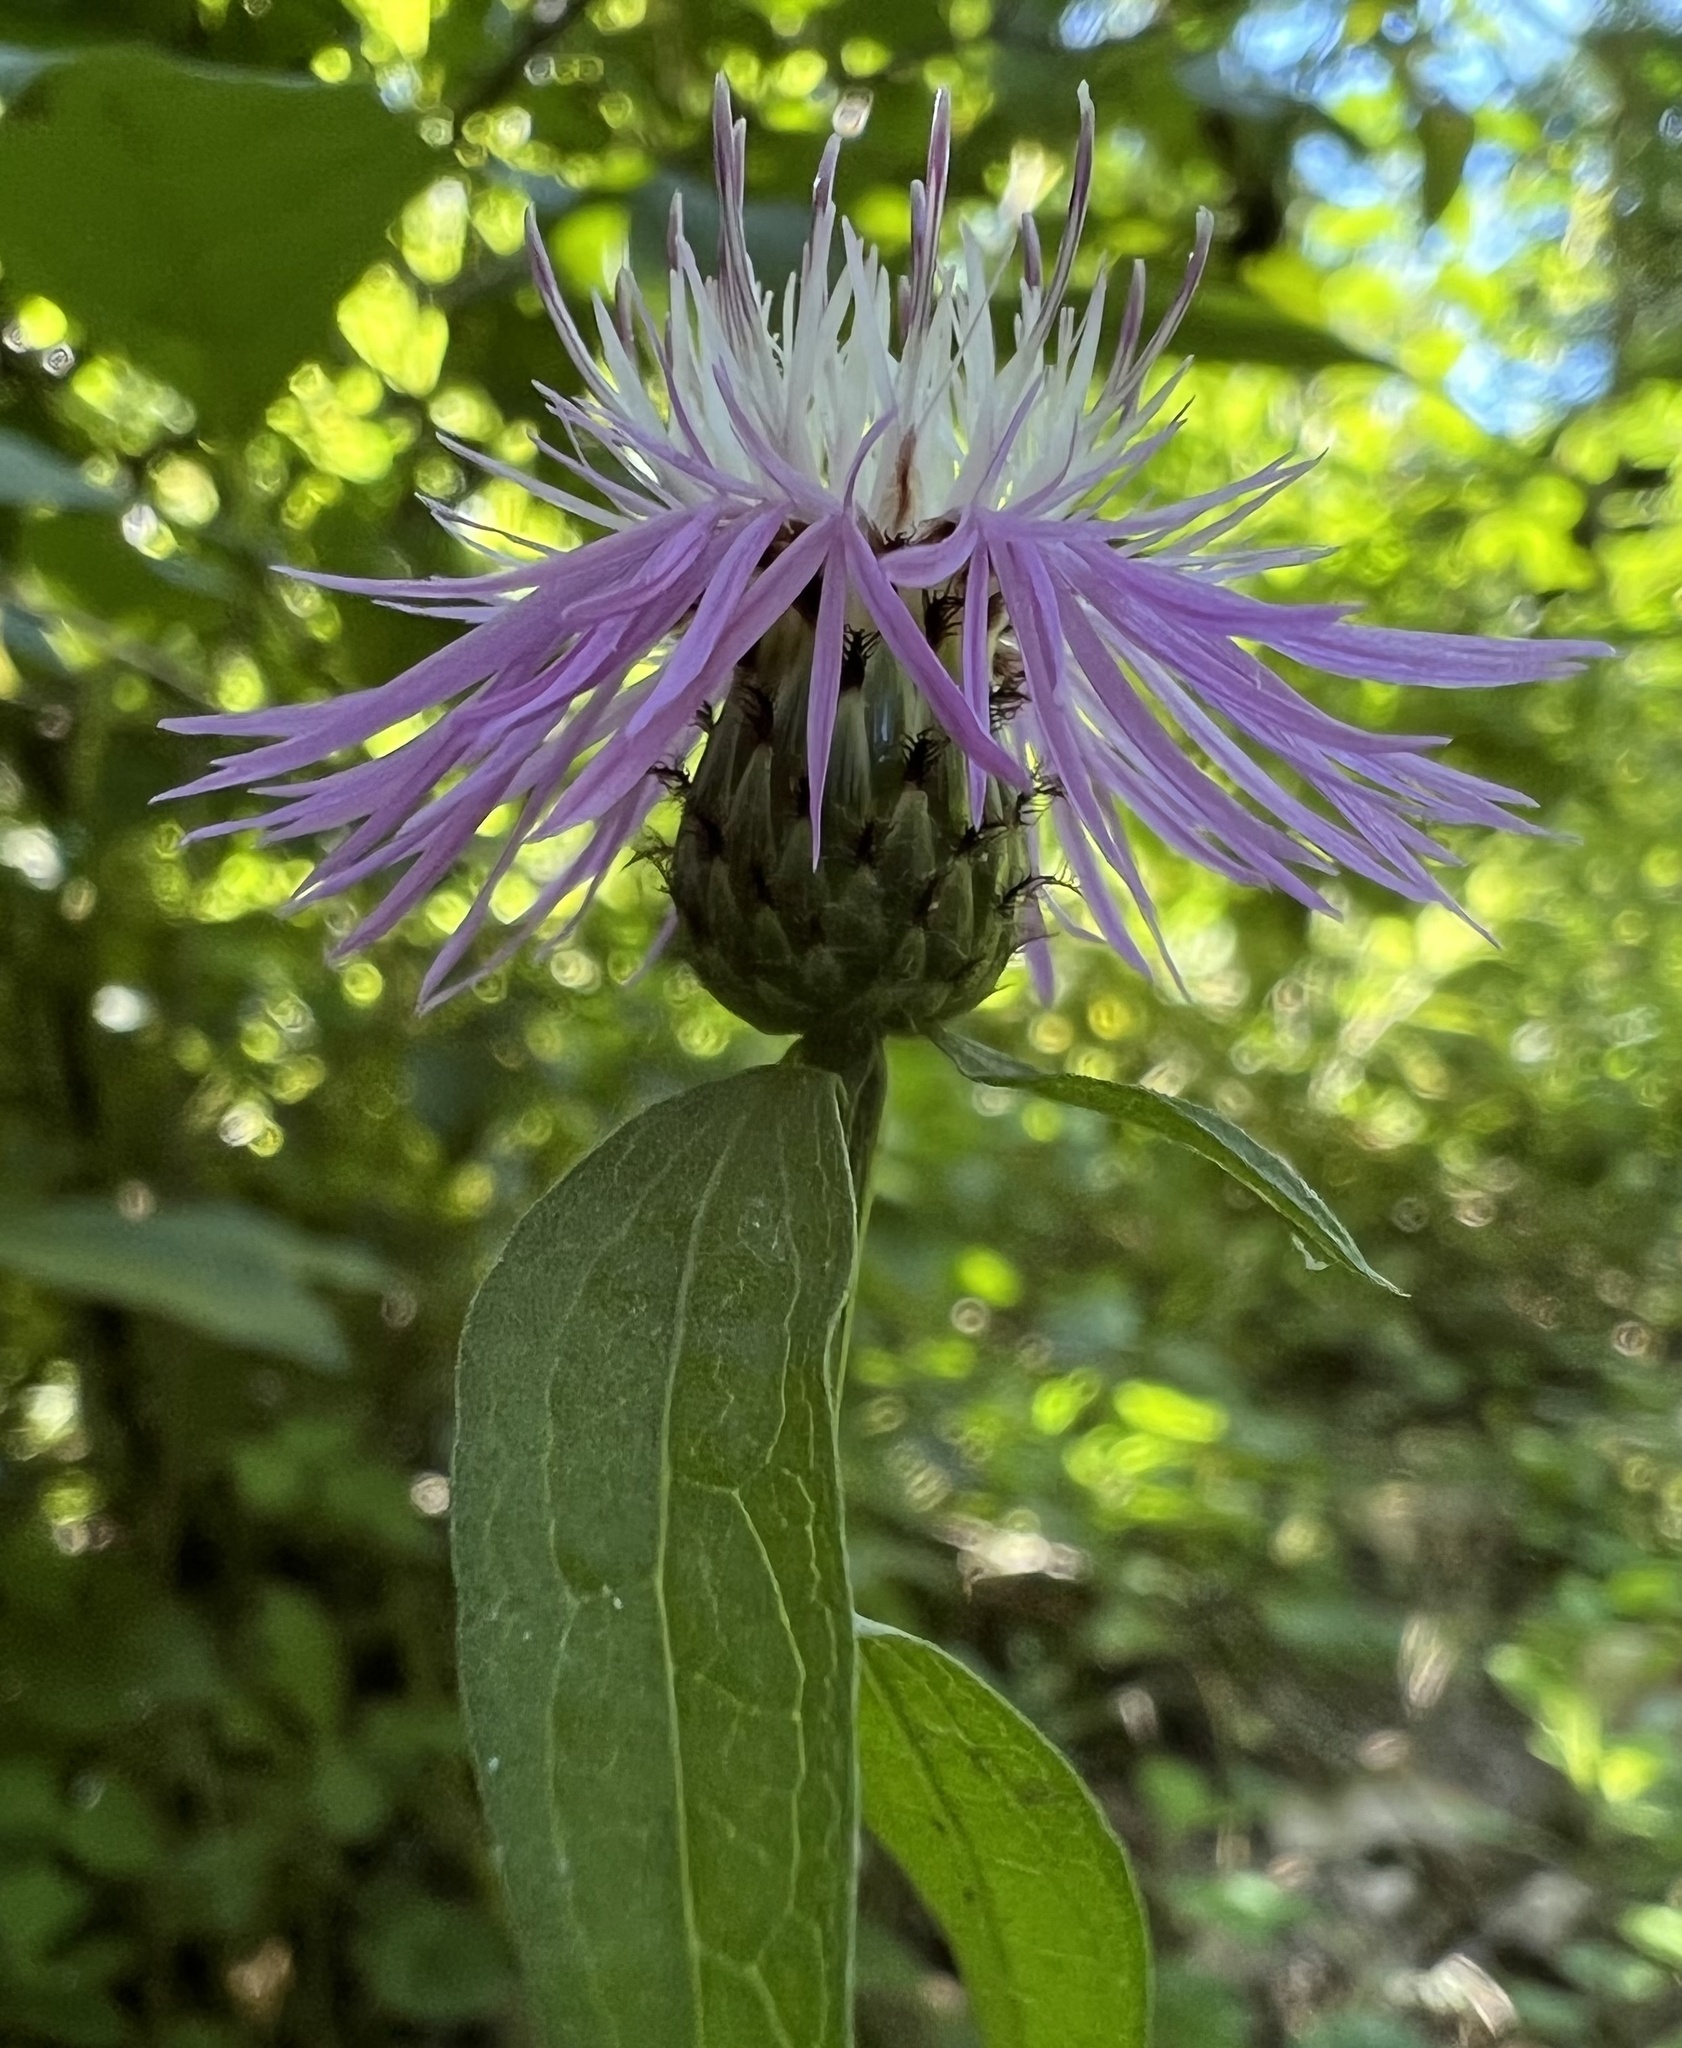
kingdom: Plantae
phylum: Tracheophyta
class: Magnoliopsida
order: Asterales
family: Asteraceae
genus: Centaurea
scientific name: Centaurea nigrescens
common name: Tyrol knapweed
